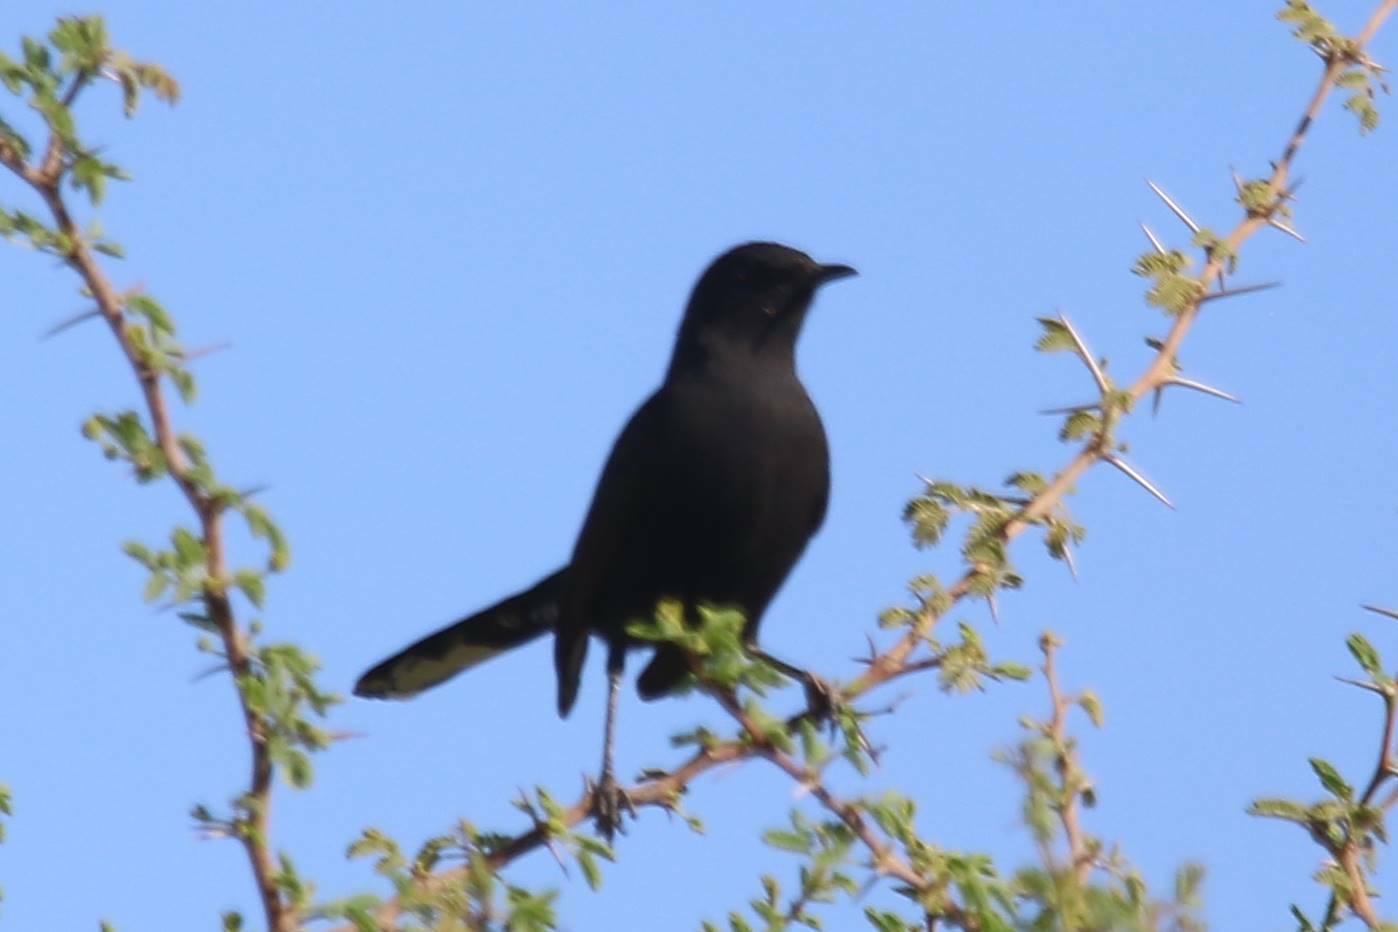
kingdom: Animalia
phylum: Chordata
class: Aves
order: Passeriformes
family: Muscicapidae
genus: Cercotrichas
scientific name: Cercotrichas podobe
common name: Black scrub robin
